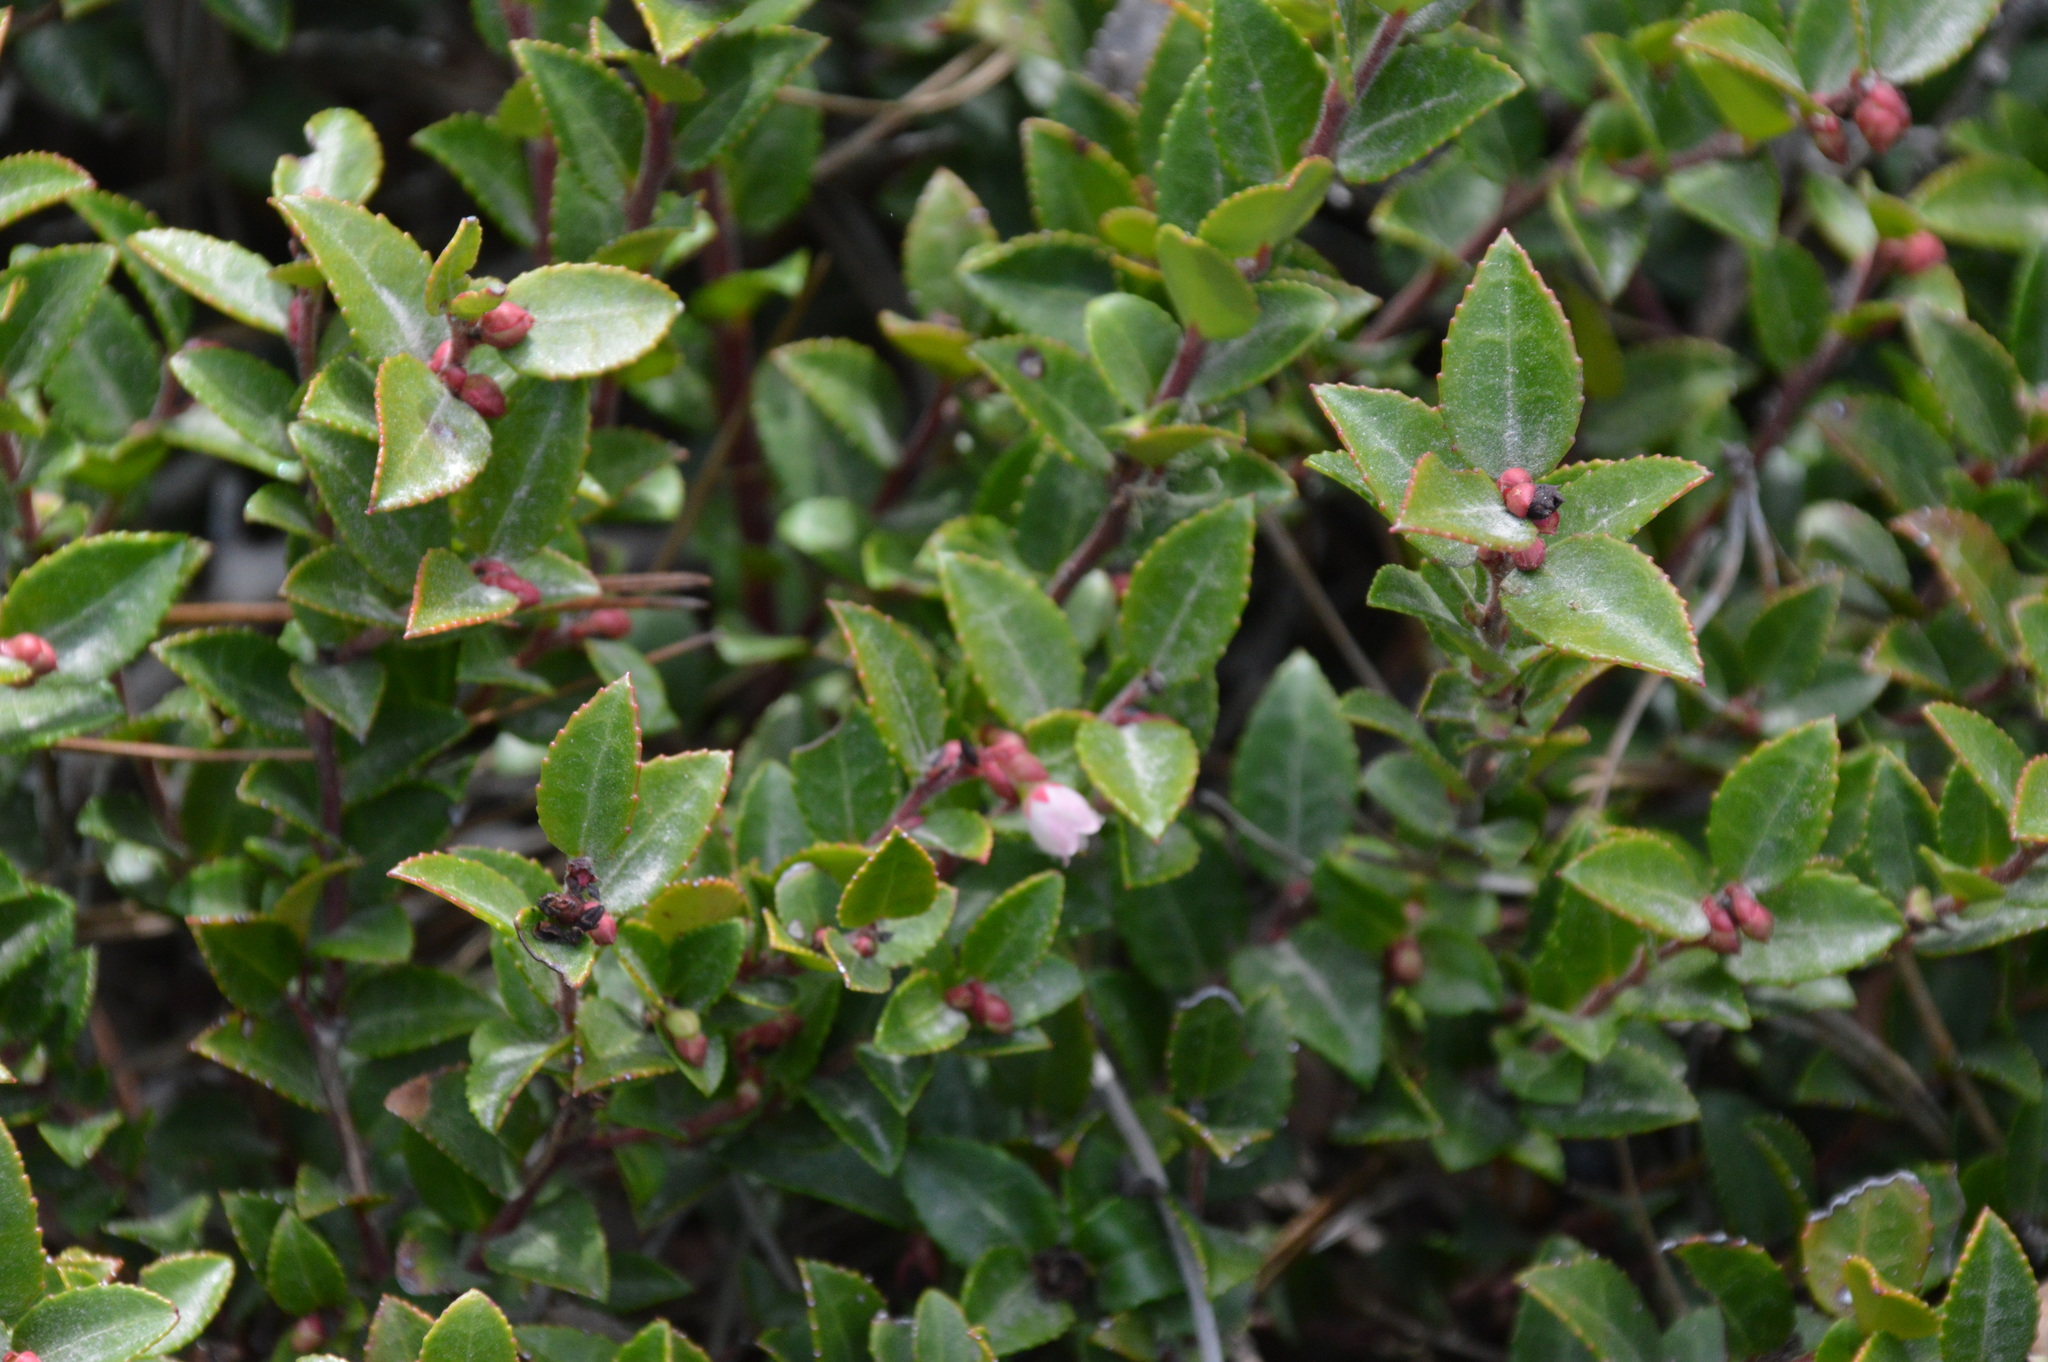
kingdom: Plantae
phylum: Tracheophyta
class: Magnoliopsida
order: Ericales
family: Ericaceae
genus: Vaccinium
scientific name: Vaccinium ovatum
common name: California-huckleberry
